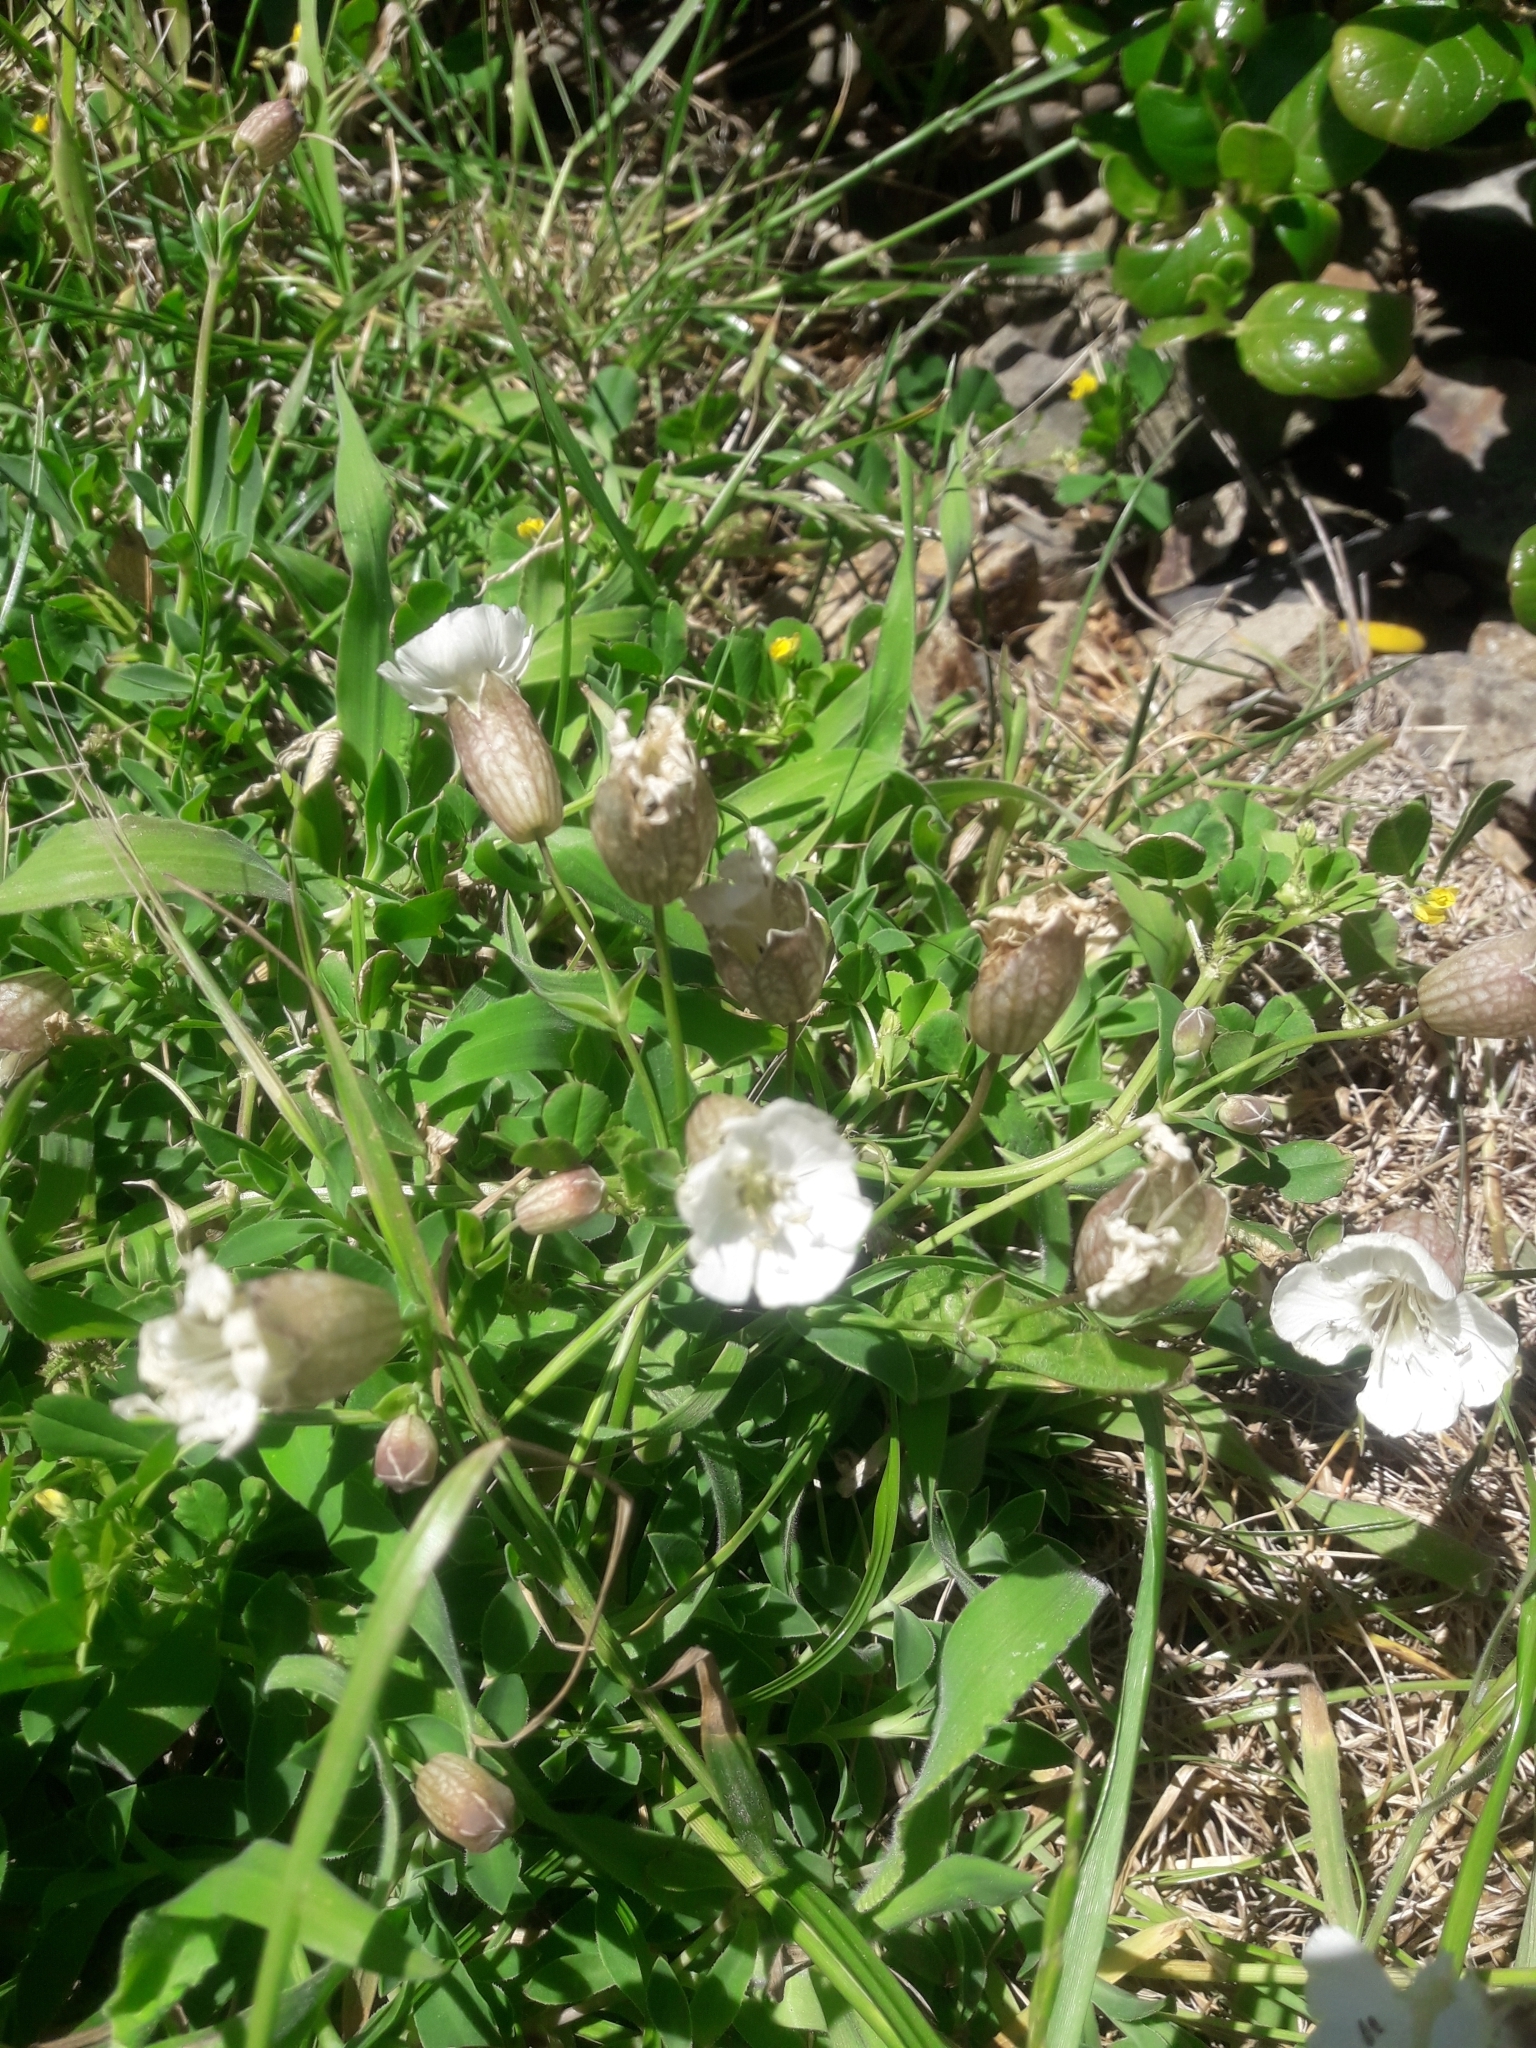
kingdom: Plantae
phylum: Tracheophyta
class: Magnoliopsida
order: Caryophyllales
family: Caryophyllaceae
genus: Silene
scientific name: Silene uniflora
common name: Sea campion
